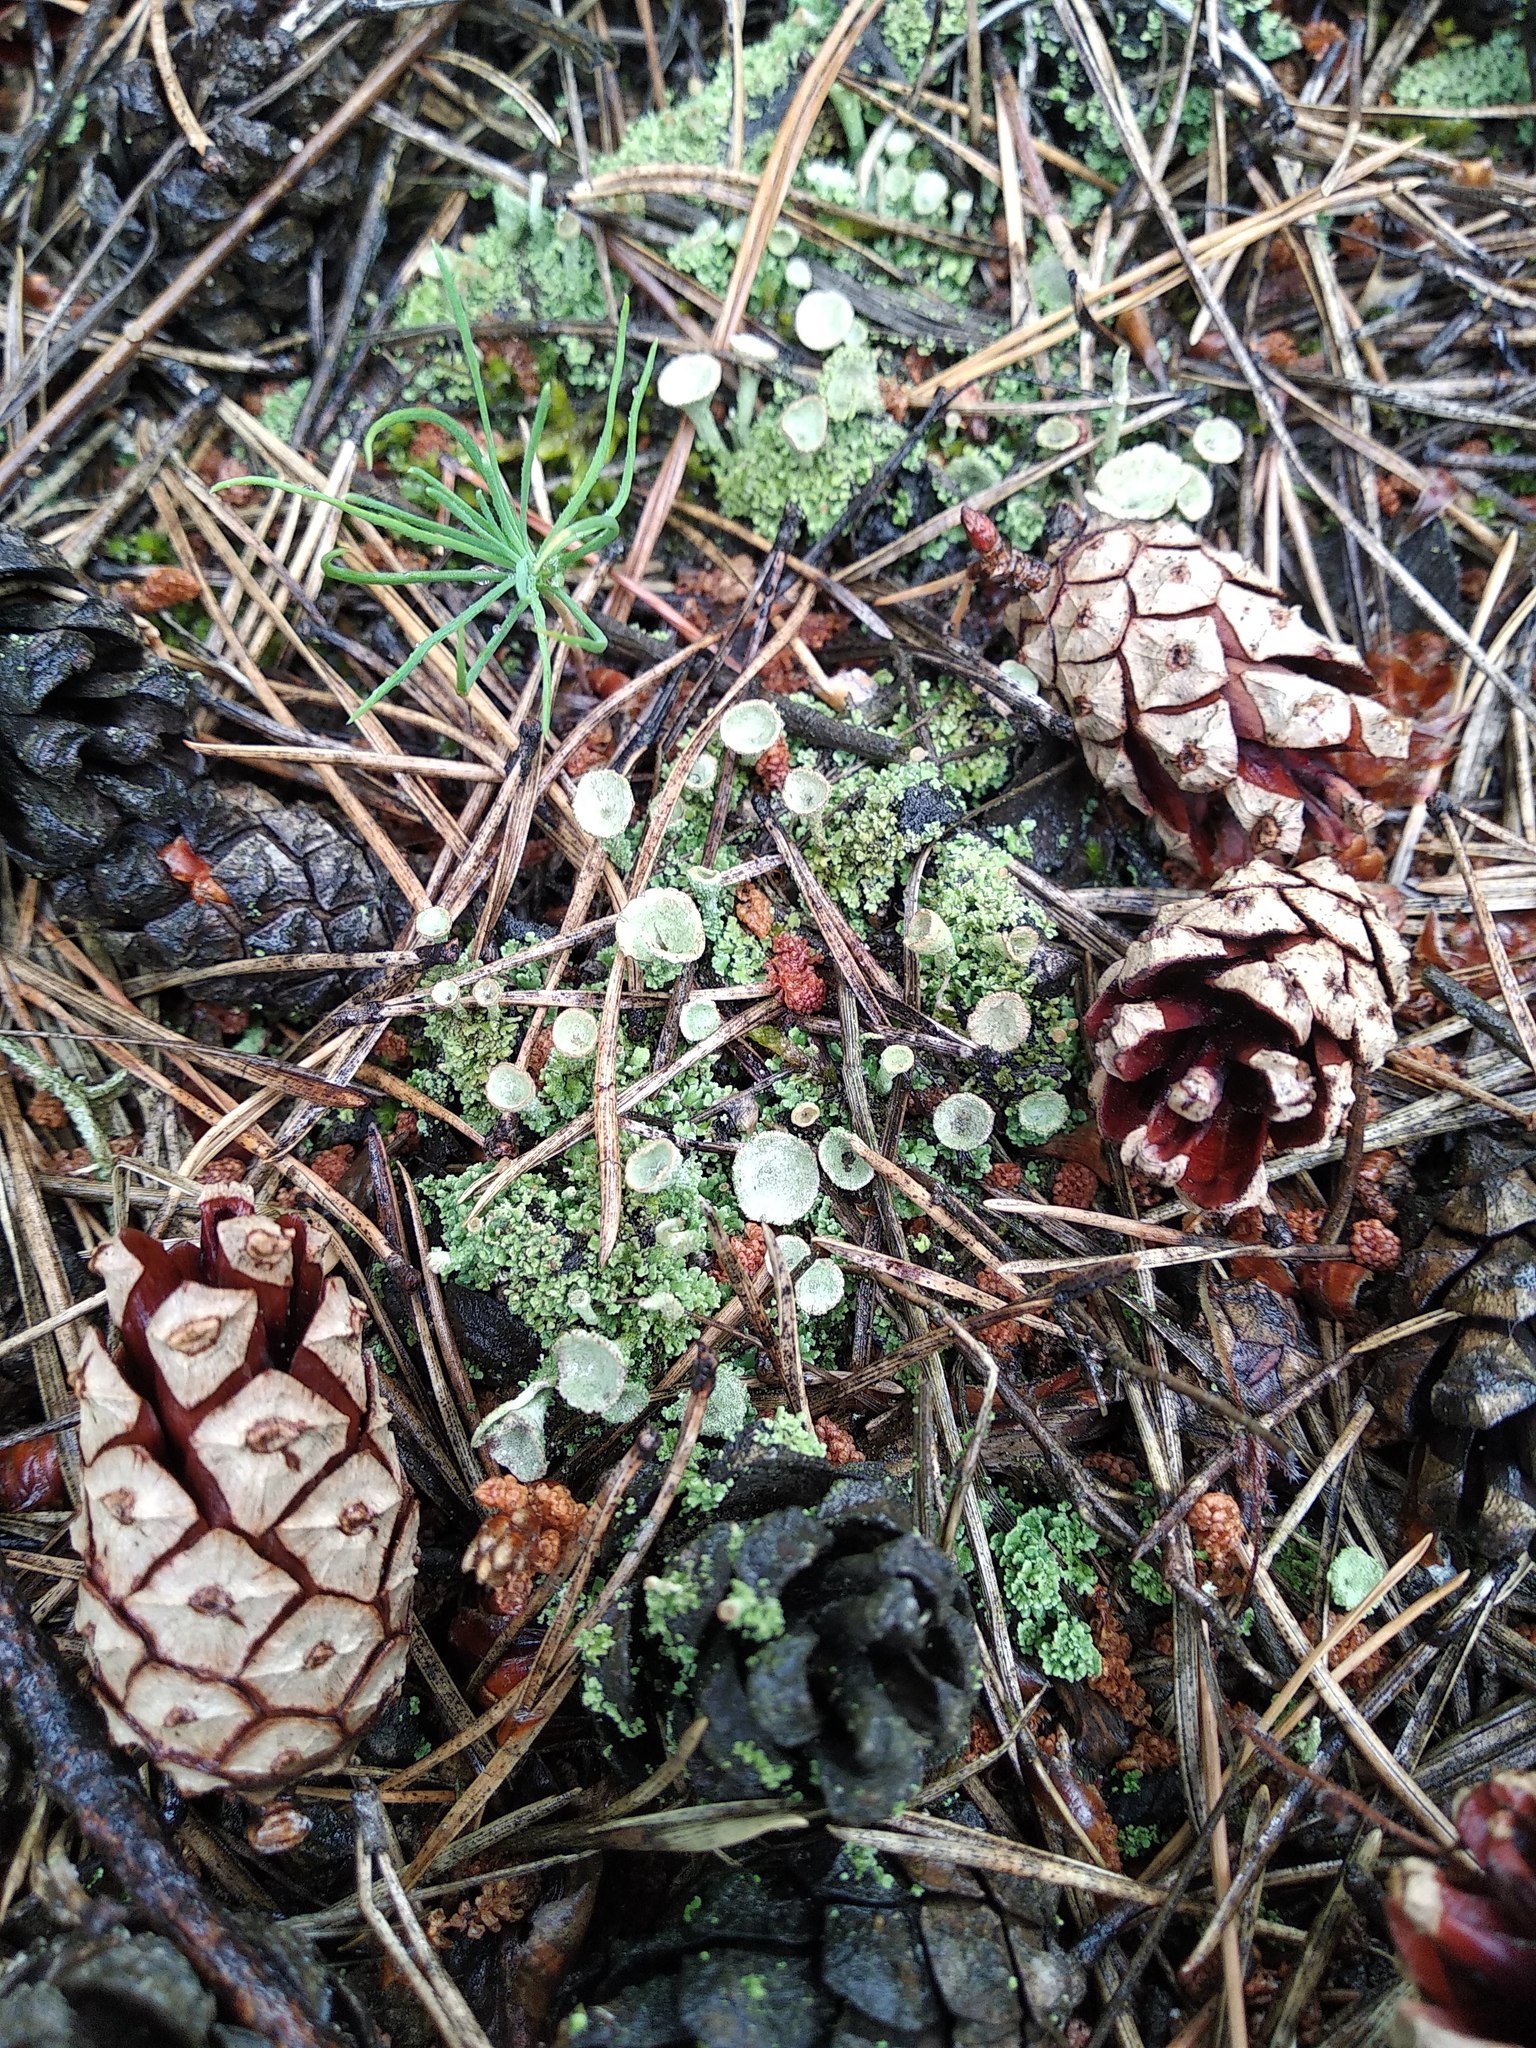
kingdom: Fungi
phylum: Ascomycota
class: Lecanoromycetes
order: Lecanorales
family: Cladoniaceae
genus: Cladonia
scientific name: Cladonia fimbriata
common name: Powdered trumpet lichen
